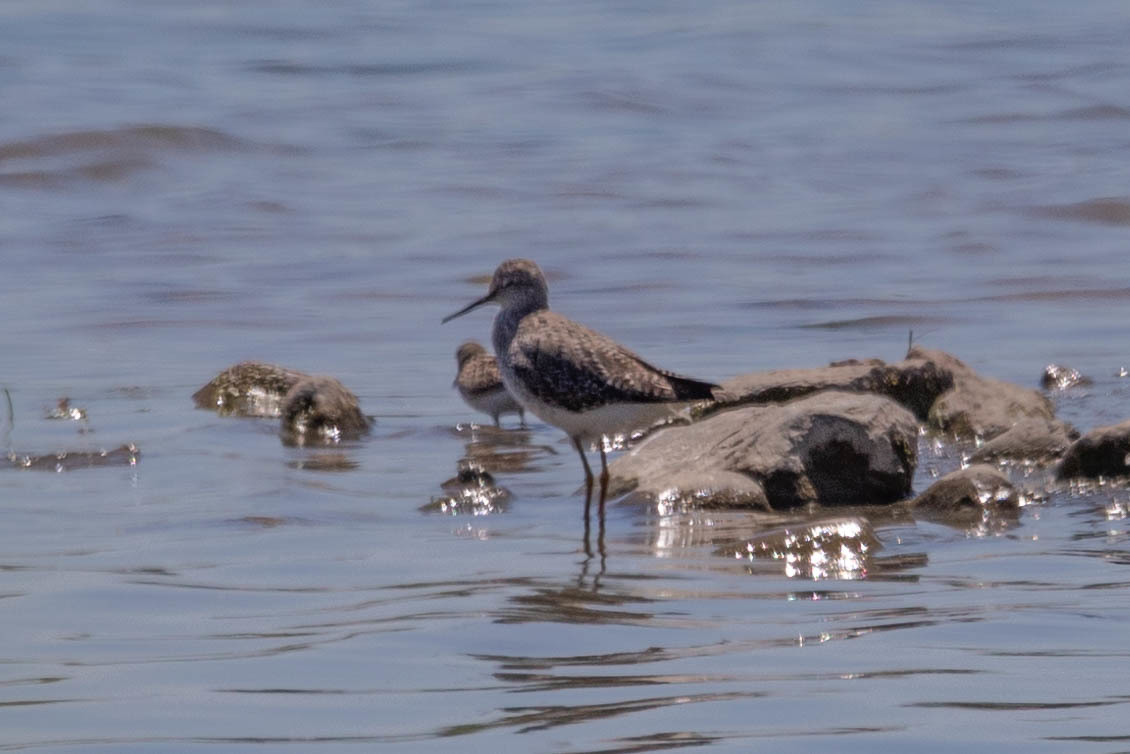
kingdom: Animalia
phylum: Chordata
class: Aves
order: Charadriiformes
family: Scolopacidae
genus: Tringa
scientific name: Tringa flavipes
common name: Lesser yellowlegs
